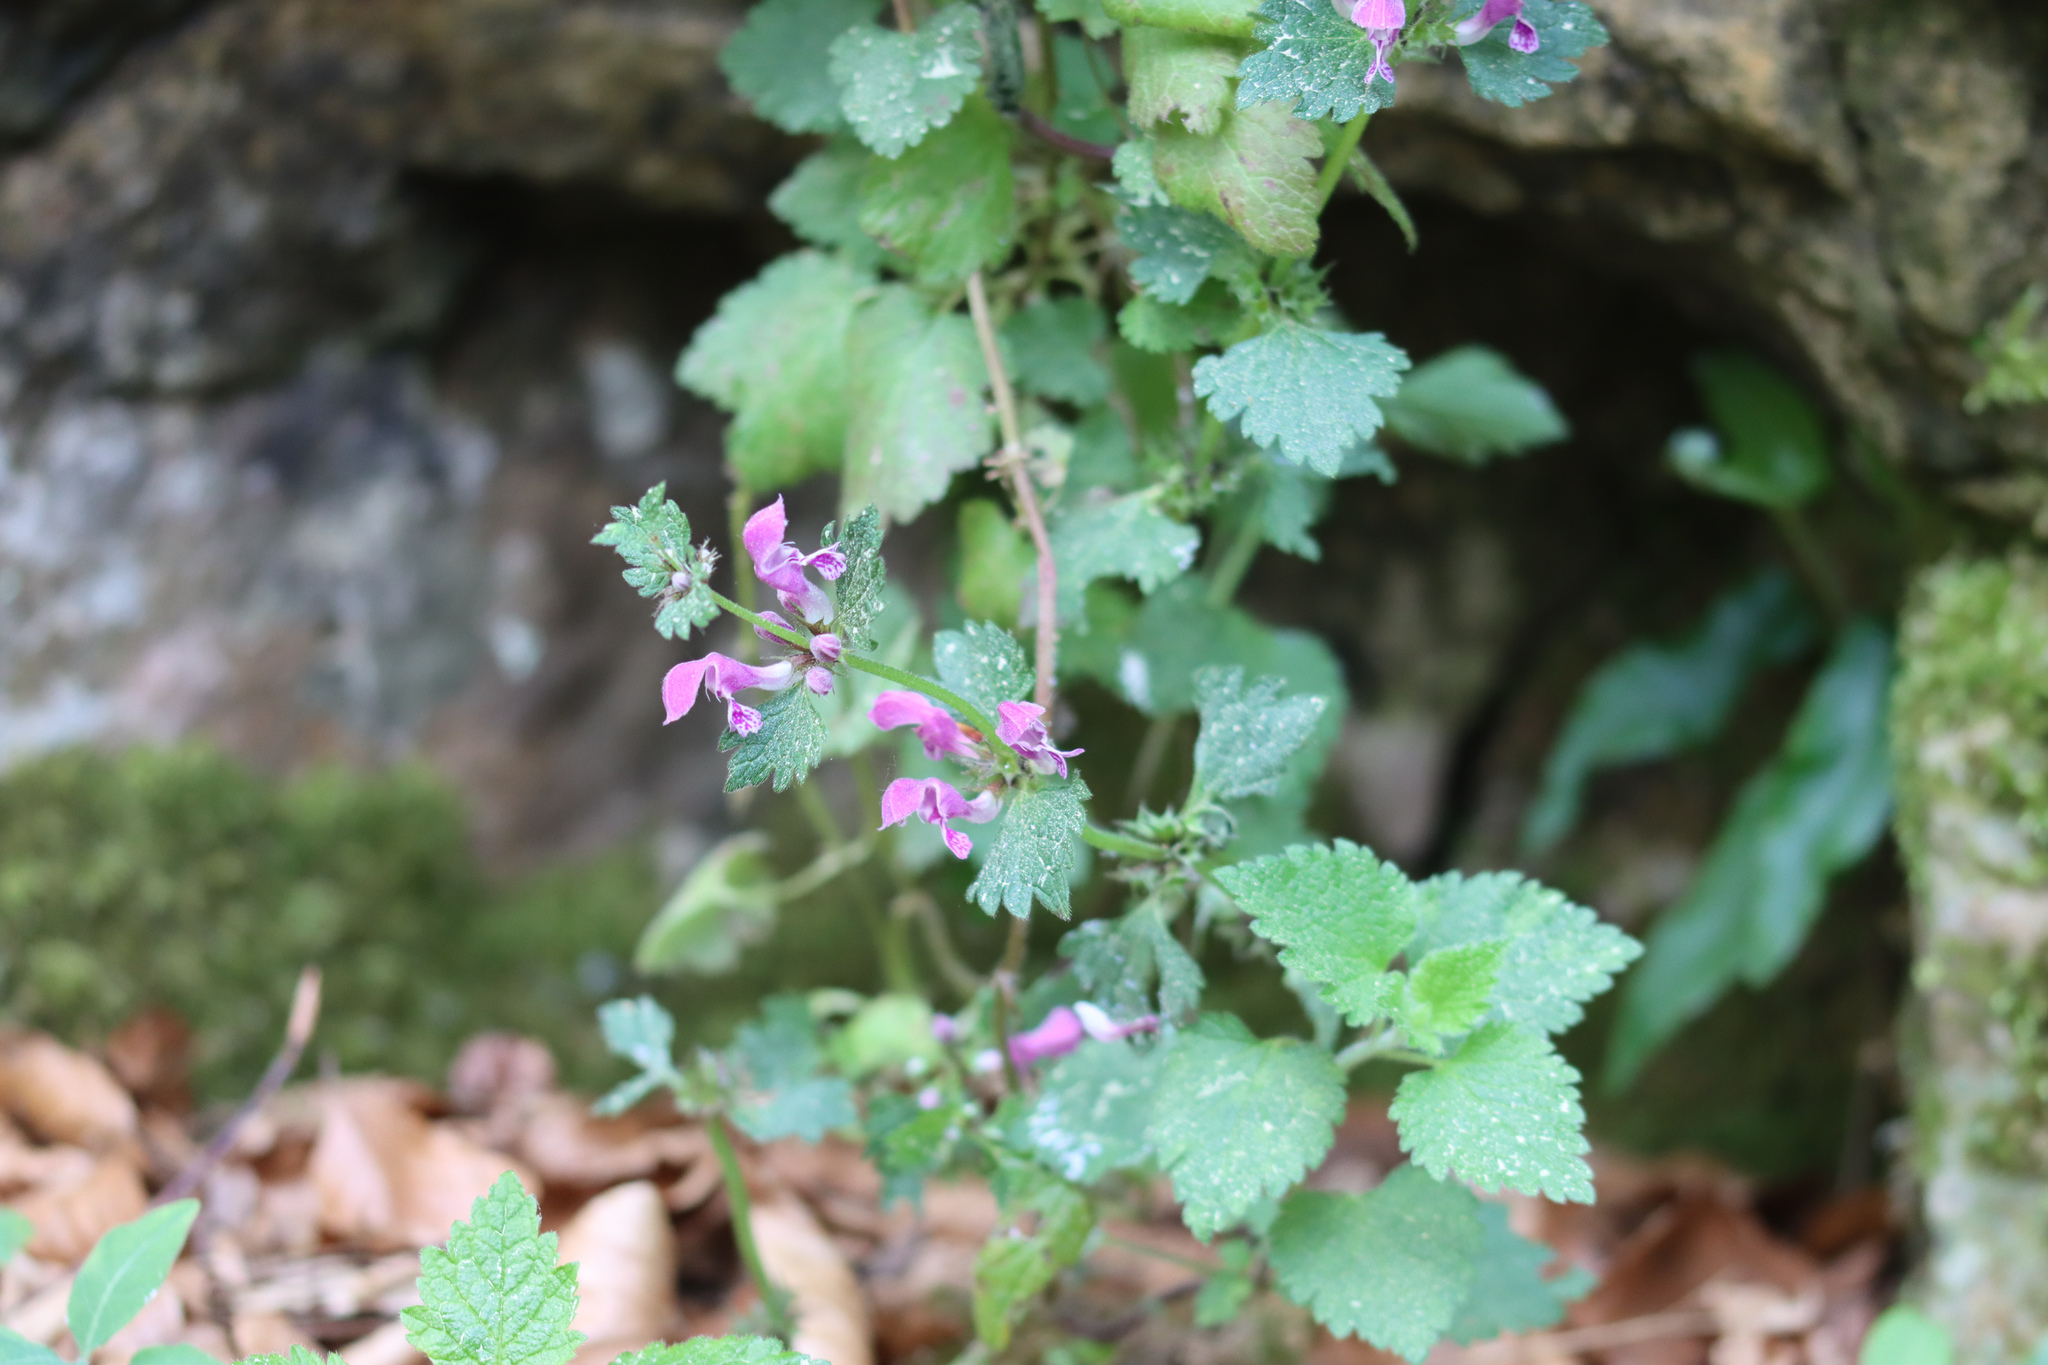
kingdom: Plantae
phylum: Tracheophyta
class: Magnoliopsida
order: Lamiales
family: Lamiaceae
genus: Lamium
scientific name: Lamium maculatum
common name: Spotted dead-nettle
